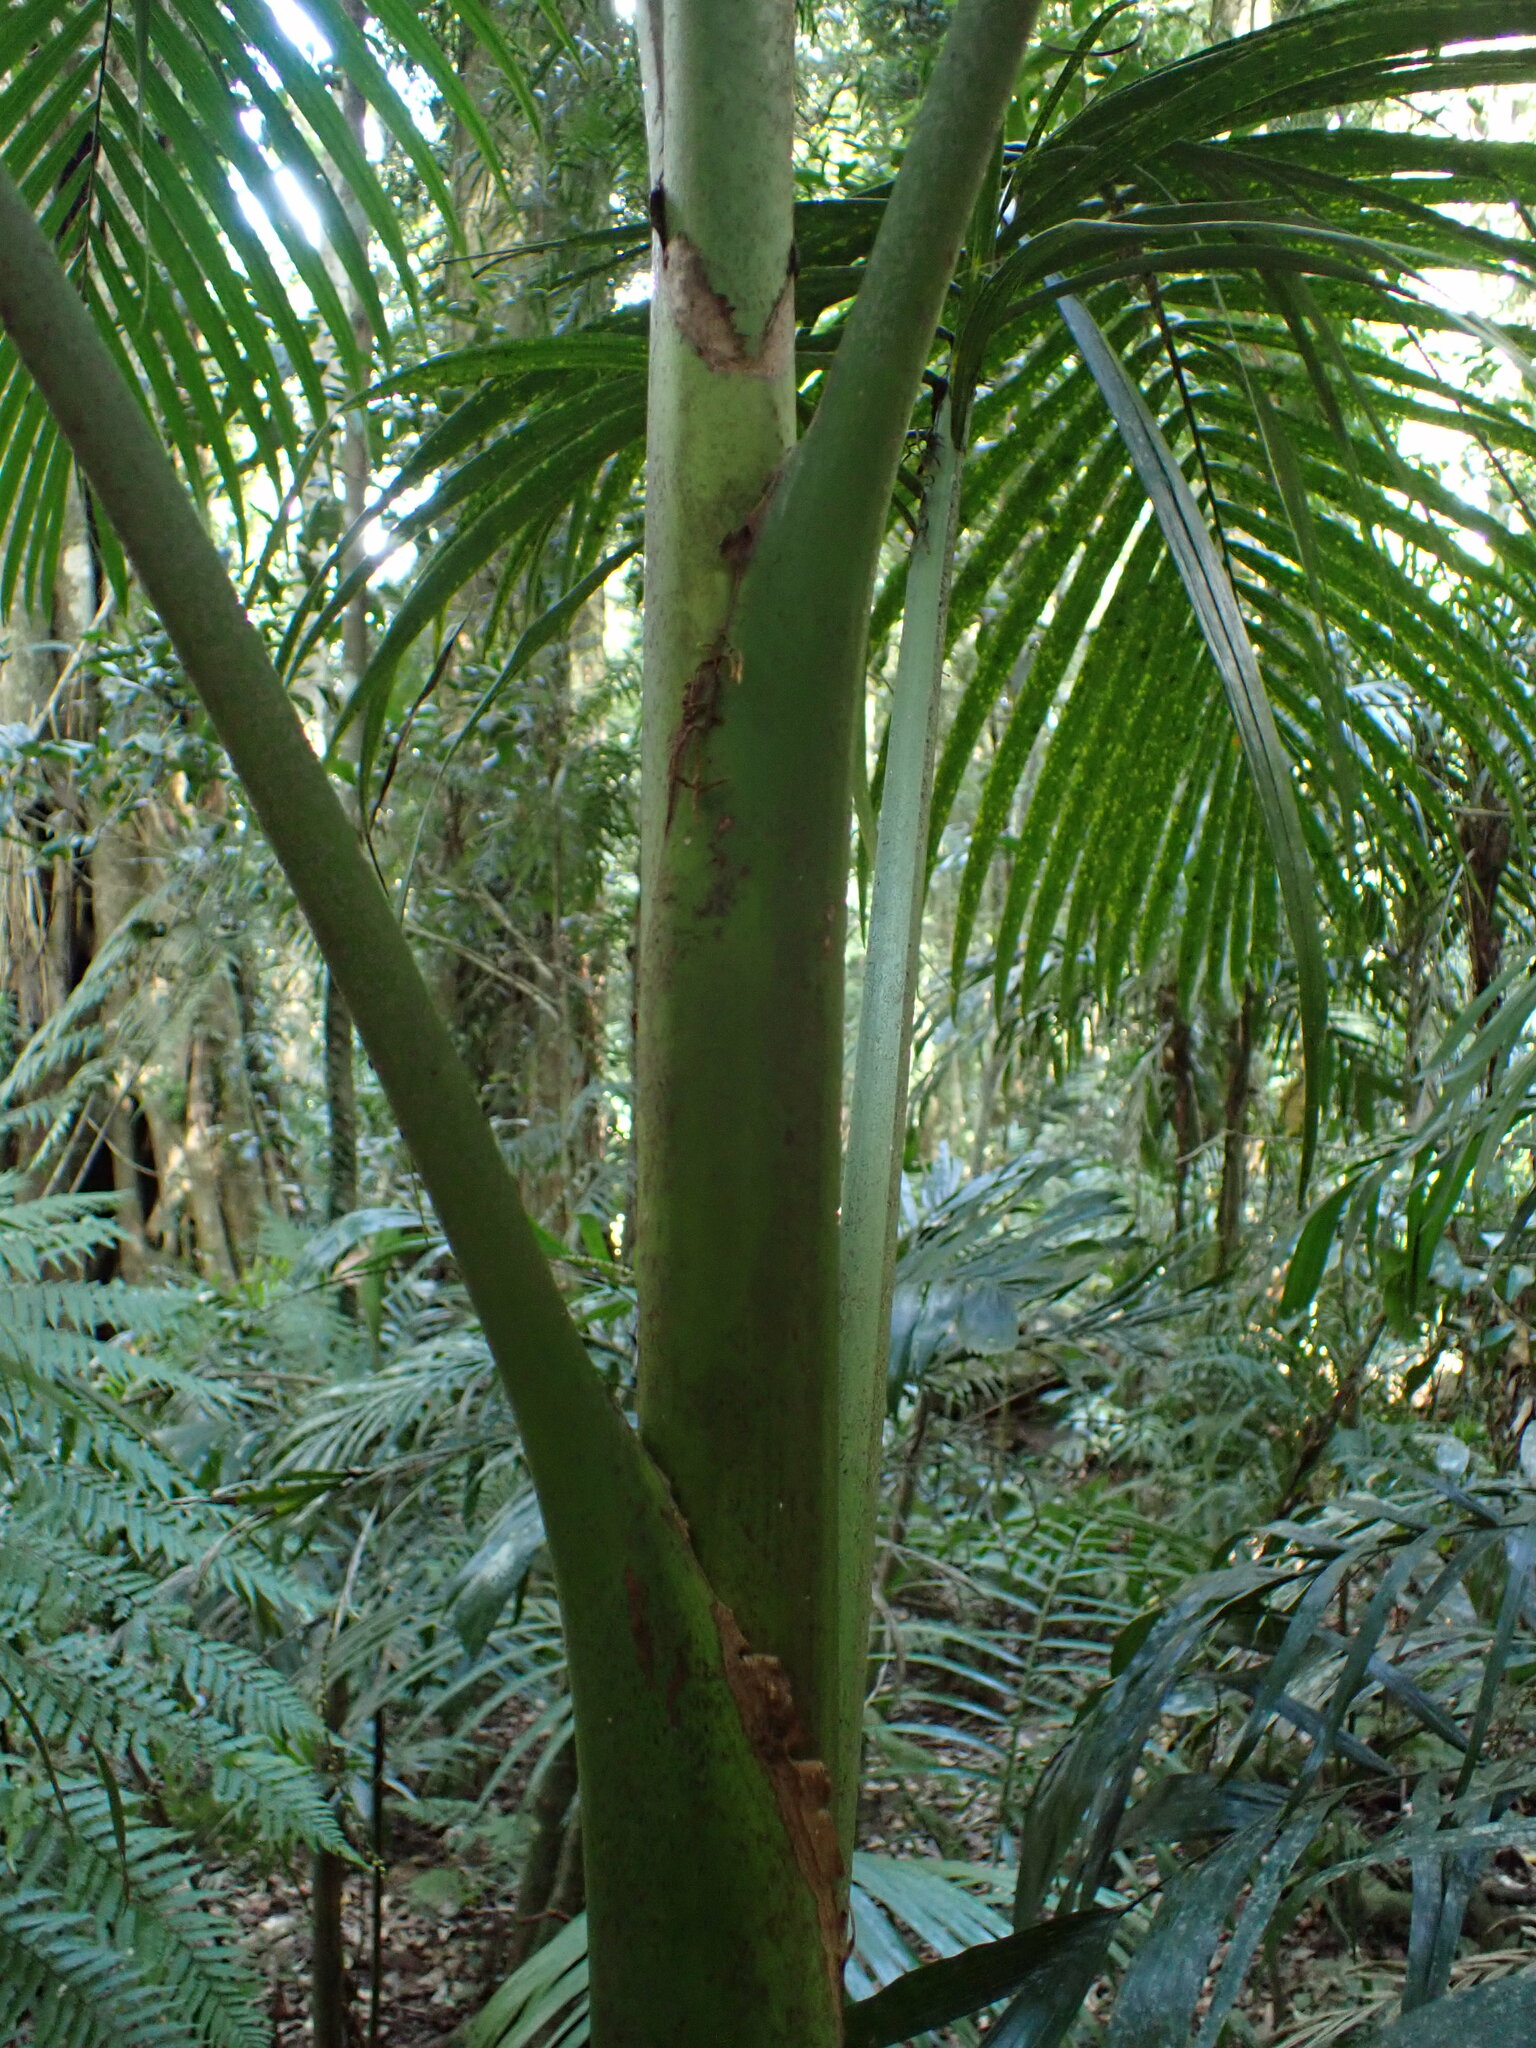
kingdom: Plantae
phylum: Tracheophyta
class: Liliopsida
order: Arecales
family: Arecaceae
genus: Archontophoenix
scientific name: Archontophoenix cunninghamiana
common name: Piccabeen bangalow palm
